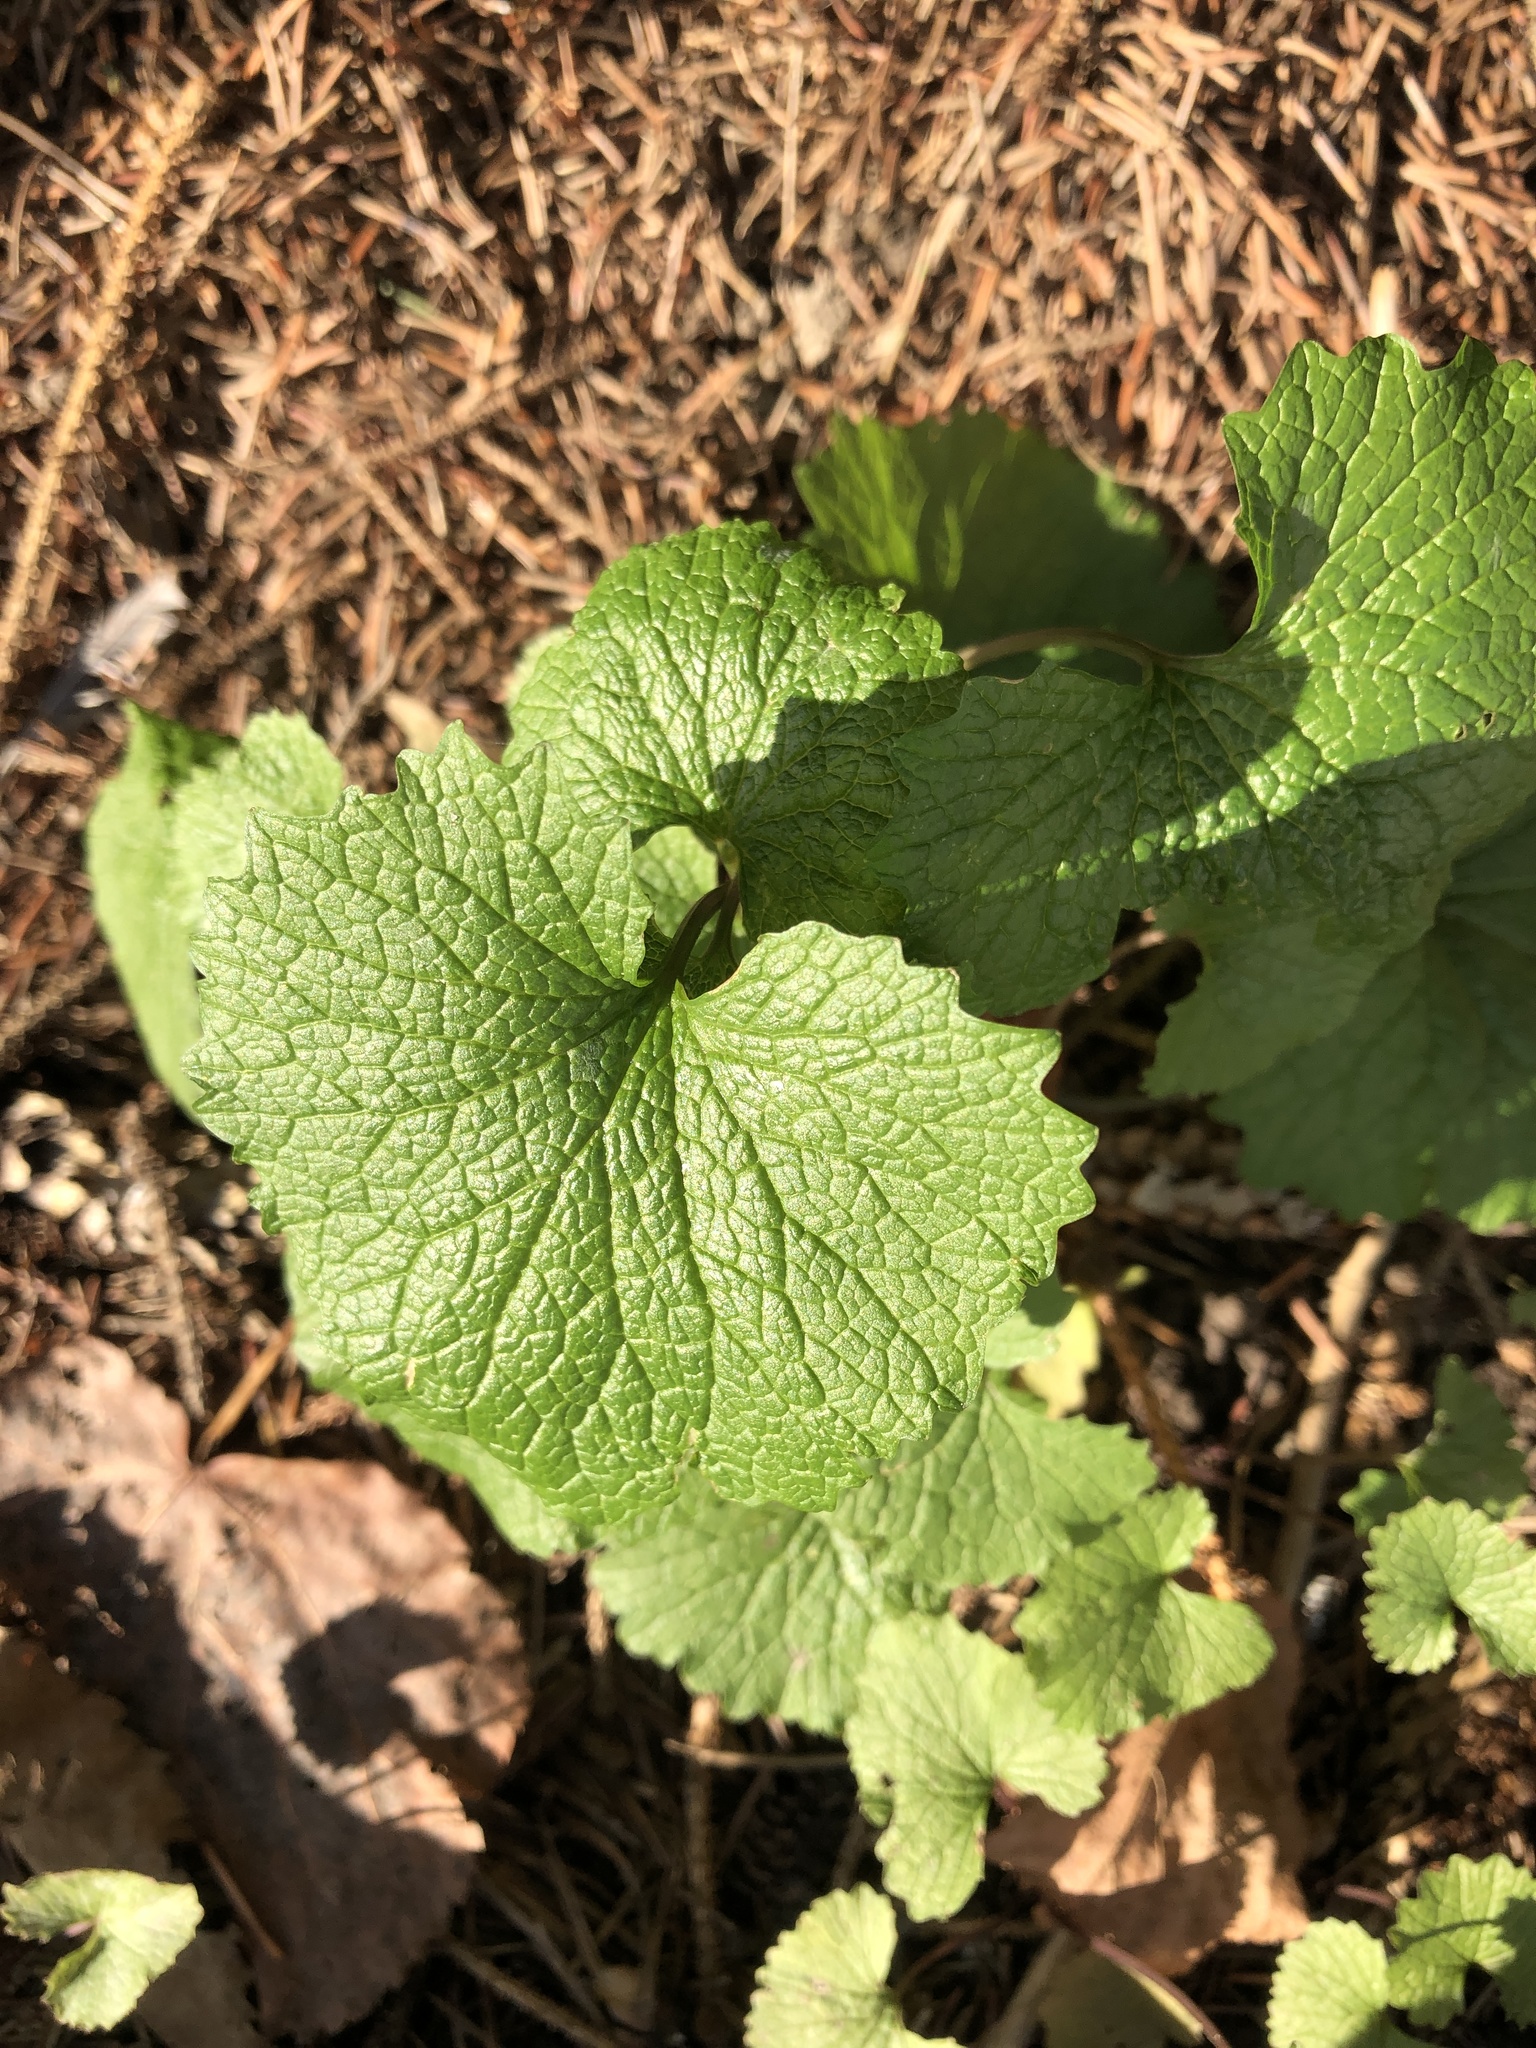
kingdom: Plantae
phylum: Tracheophyta
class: Magnoliopsida
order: Brassicales
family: Brassicaceae
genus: Alliaria
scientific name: Alliaria petiolata
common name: Garlic mustard
